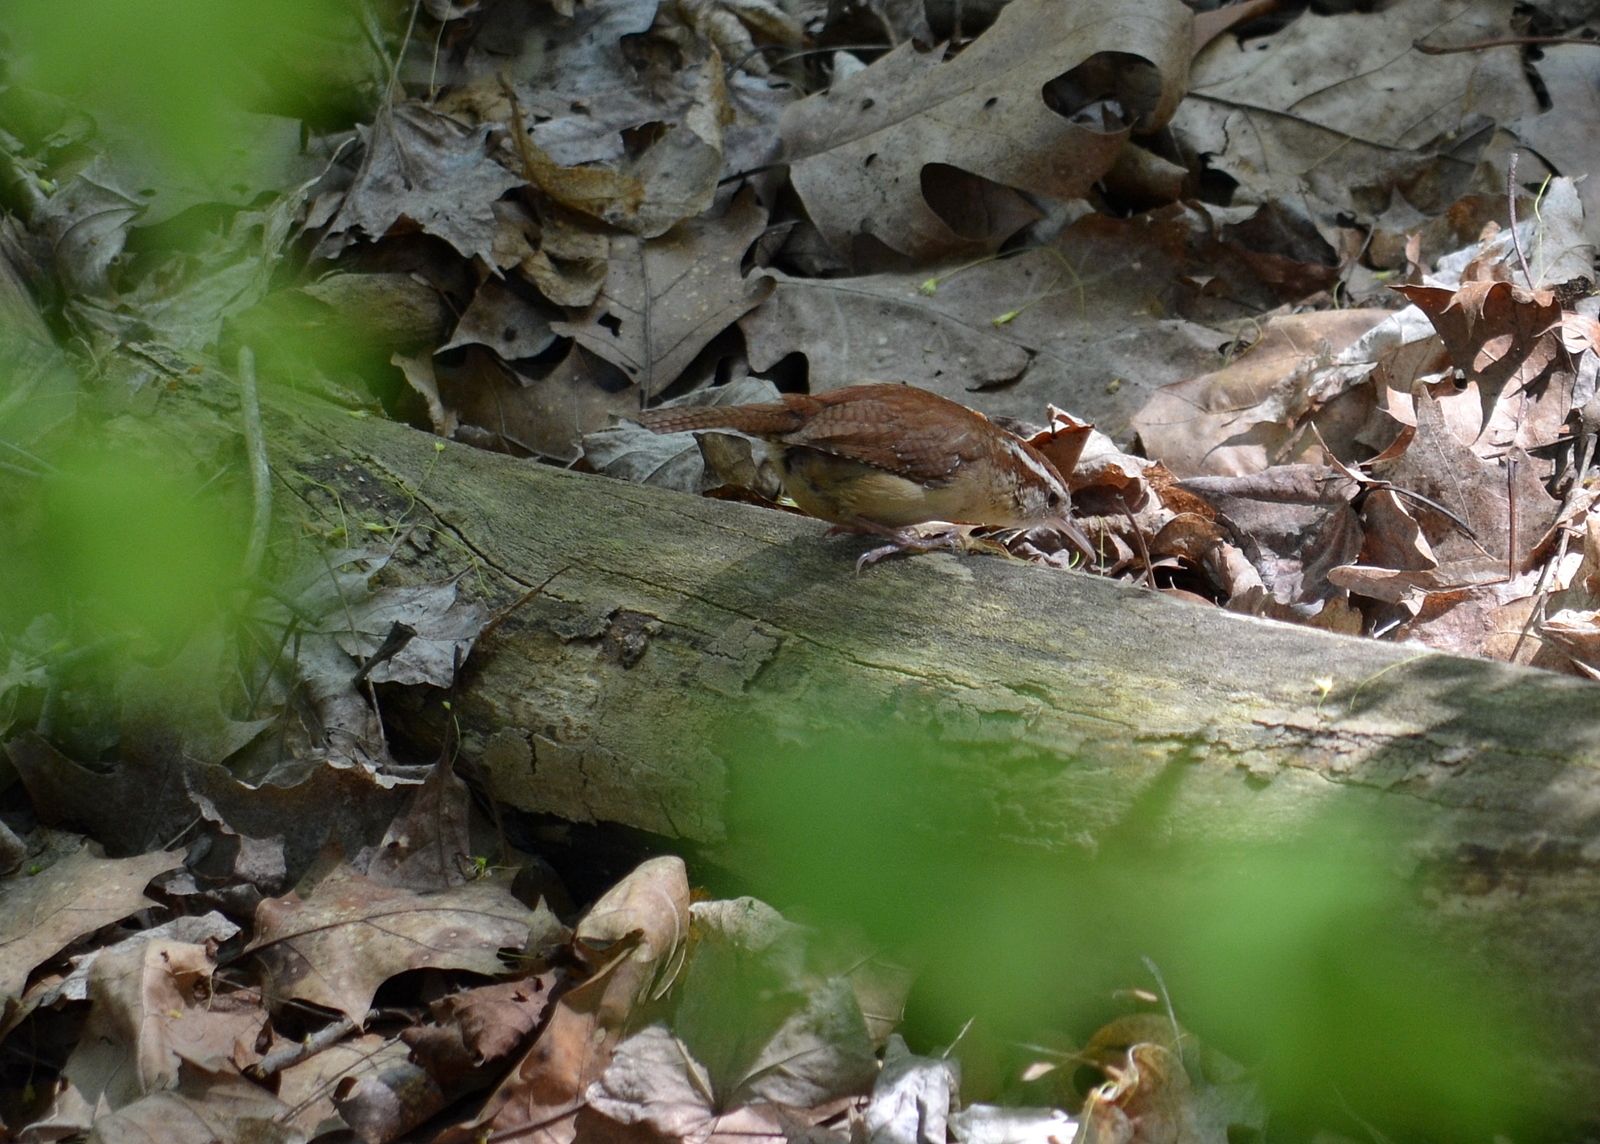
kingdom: Animalia
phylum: Chordata
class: Aves
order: Passeriformes
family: Troglodytidae
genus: Thryothorus
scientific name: Thryothorus ludovicianus
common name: Carolina wren
